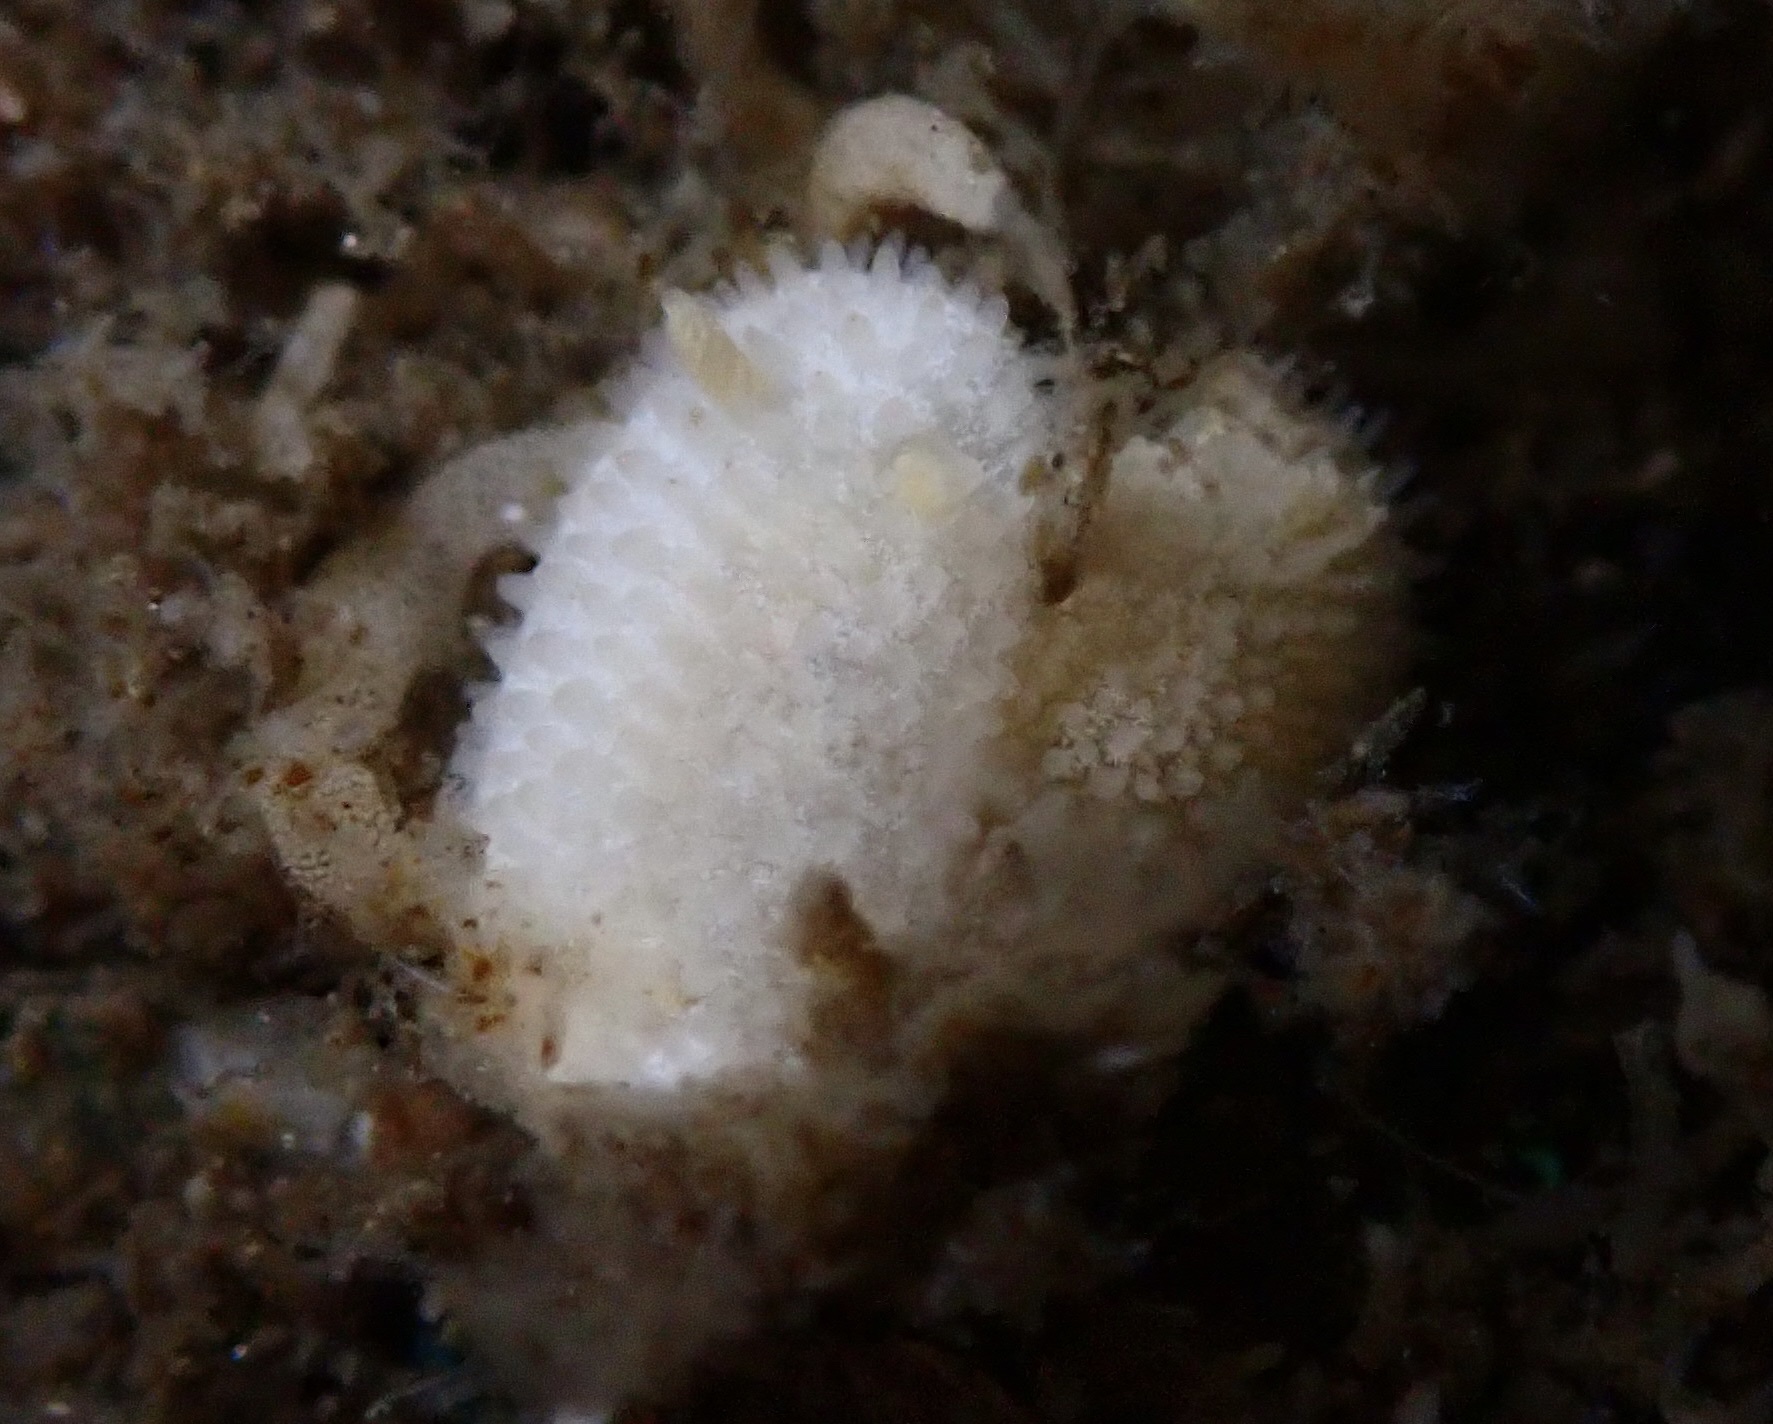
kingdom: Animalia
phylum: Mollusca
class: Gastropoda
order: Nudibranchia
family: Calycidorididae
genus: Diaphorodoris
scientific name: Diaphorodoris lirulatocauda
